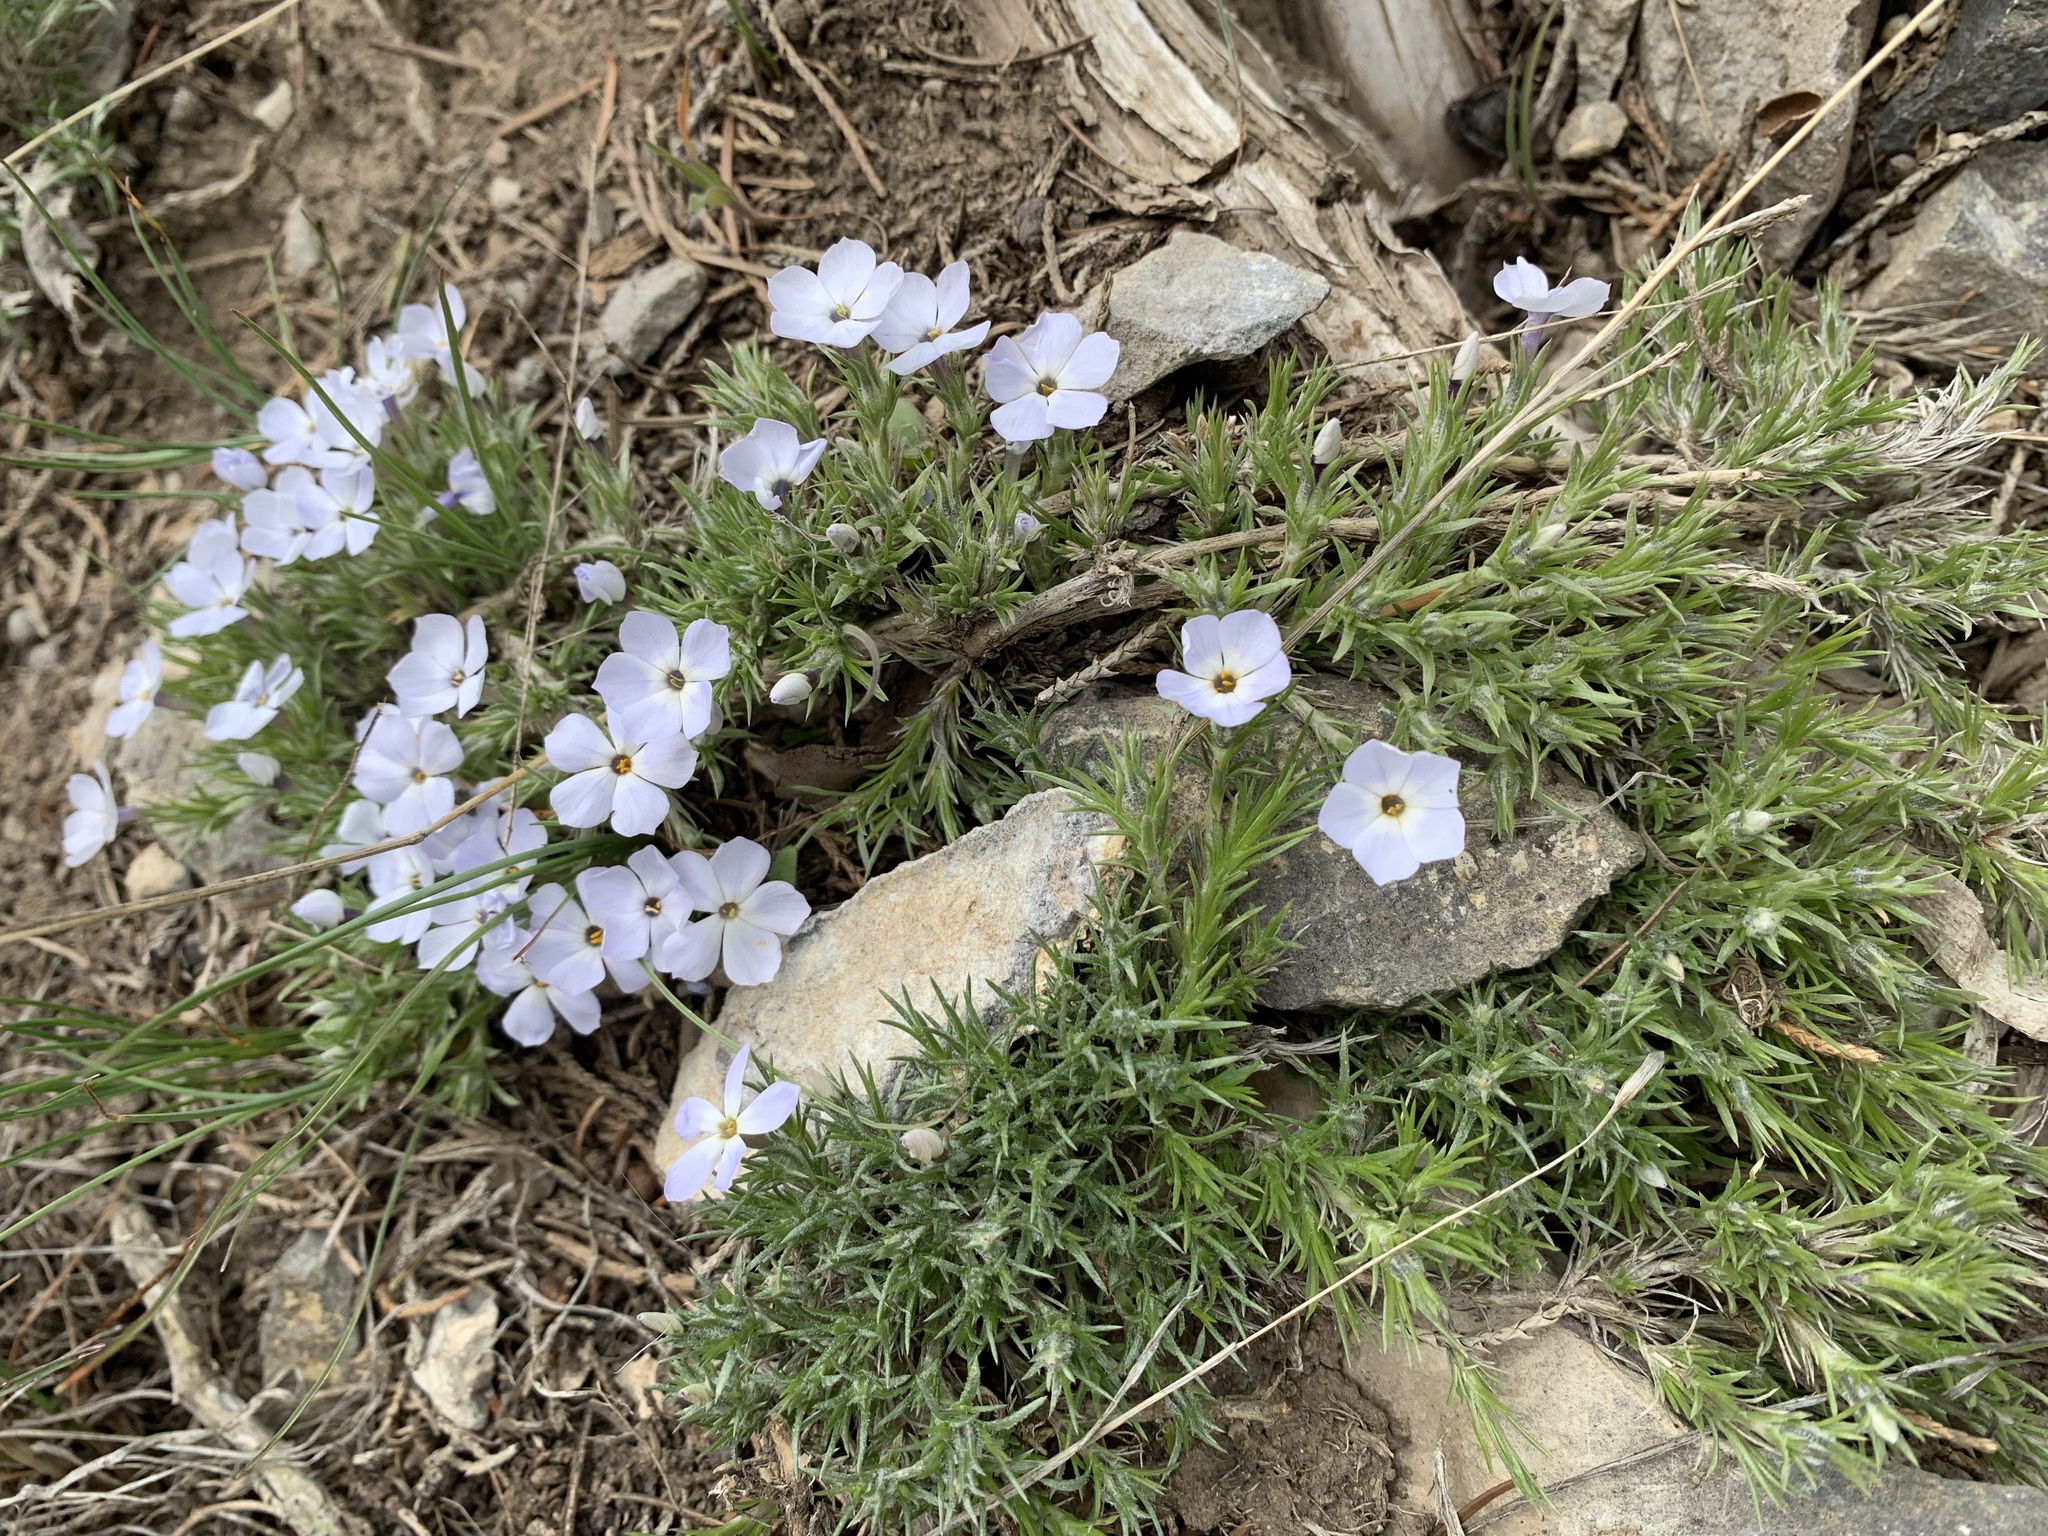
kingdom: Plantae
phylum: Tracheophyta
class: Magnoliopsida
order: Ericales
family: Polemoniaceae
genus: Phlox
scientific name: Phlox hoodii
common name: Moss phlox
